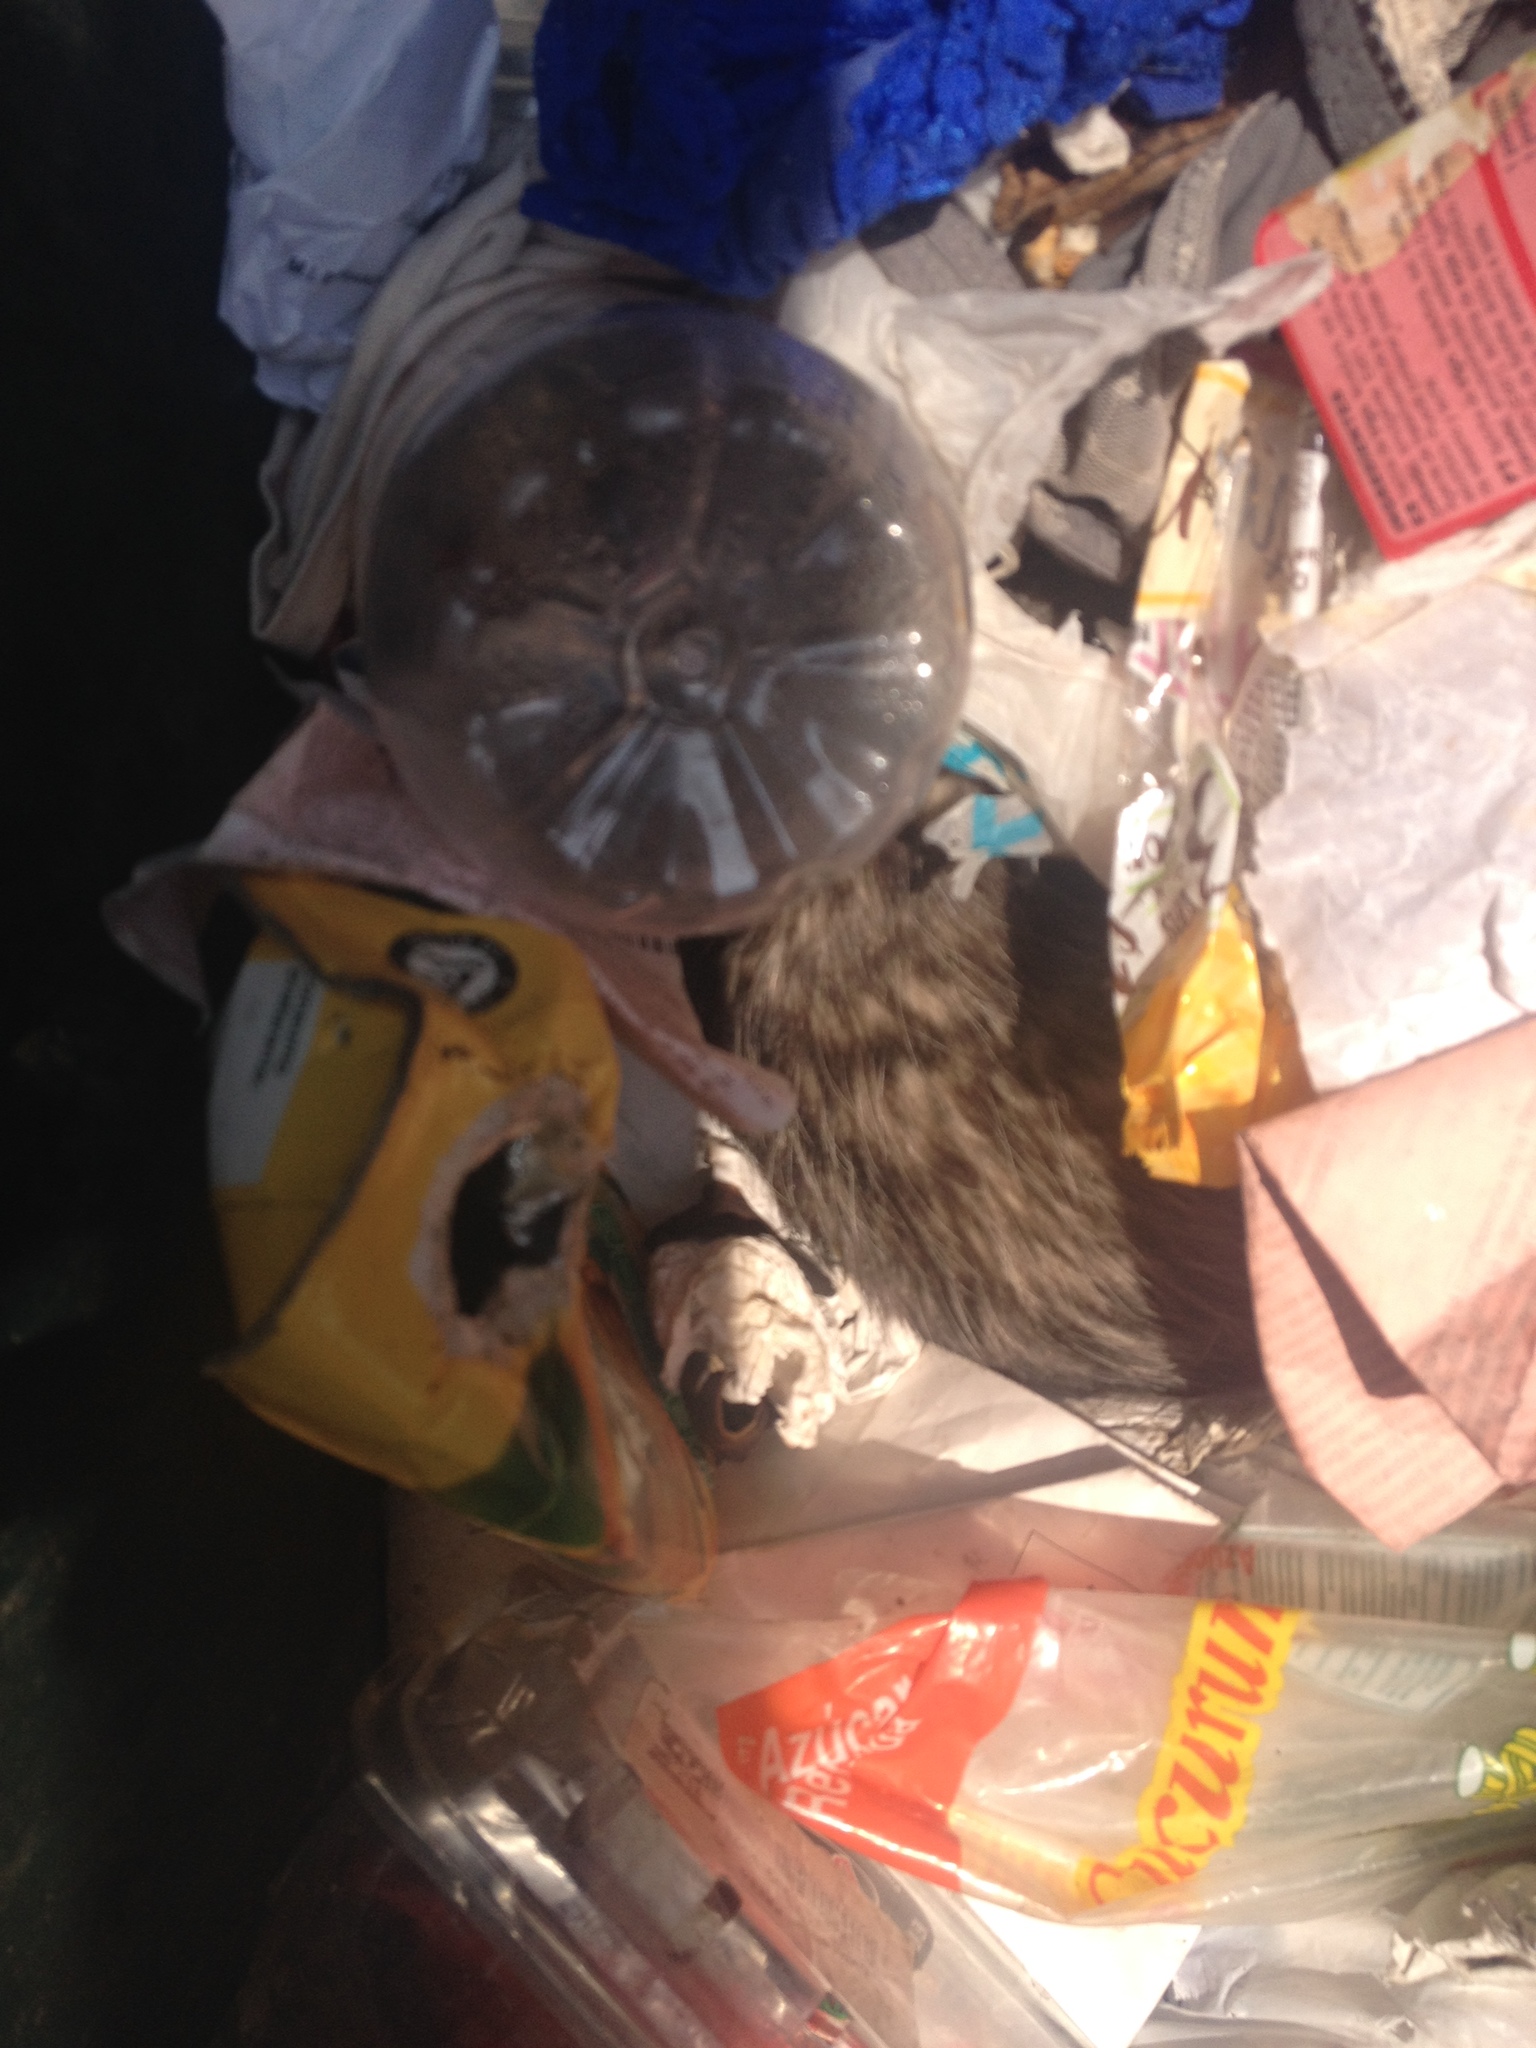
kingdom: Animalia
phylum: Chordata
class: Mammalia
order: Didelphimorphia
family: Didelphidae
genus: Didelphis
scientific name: Didelphis virginiana
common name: Virginia opossum
